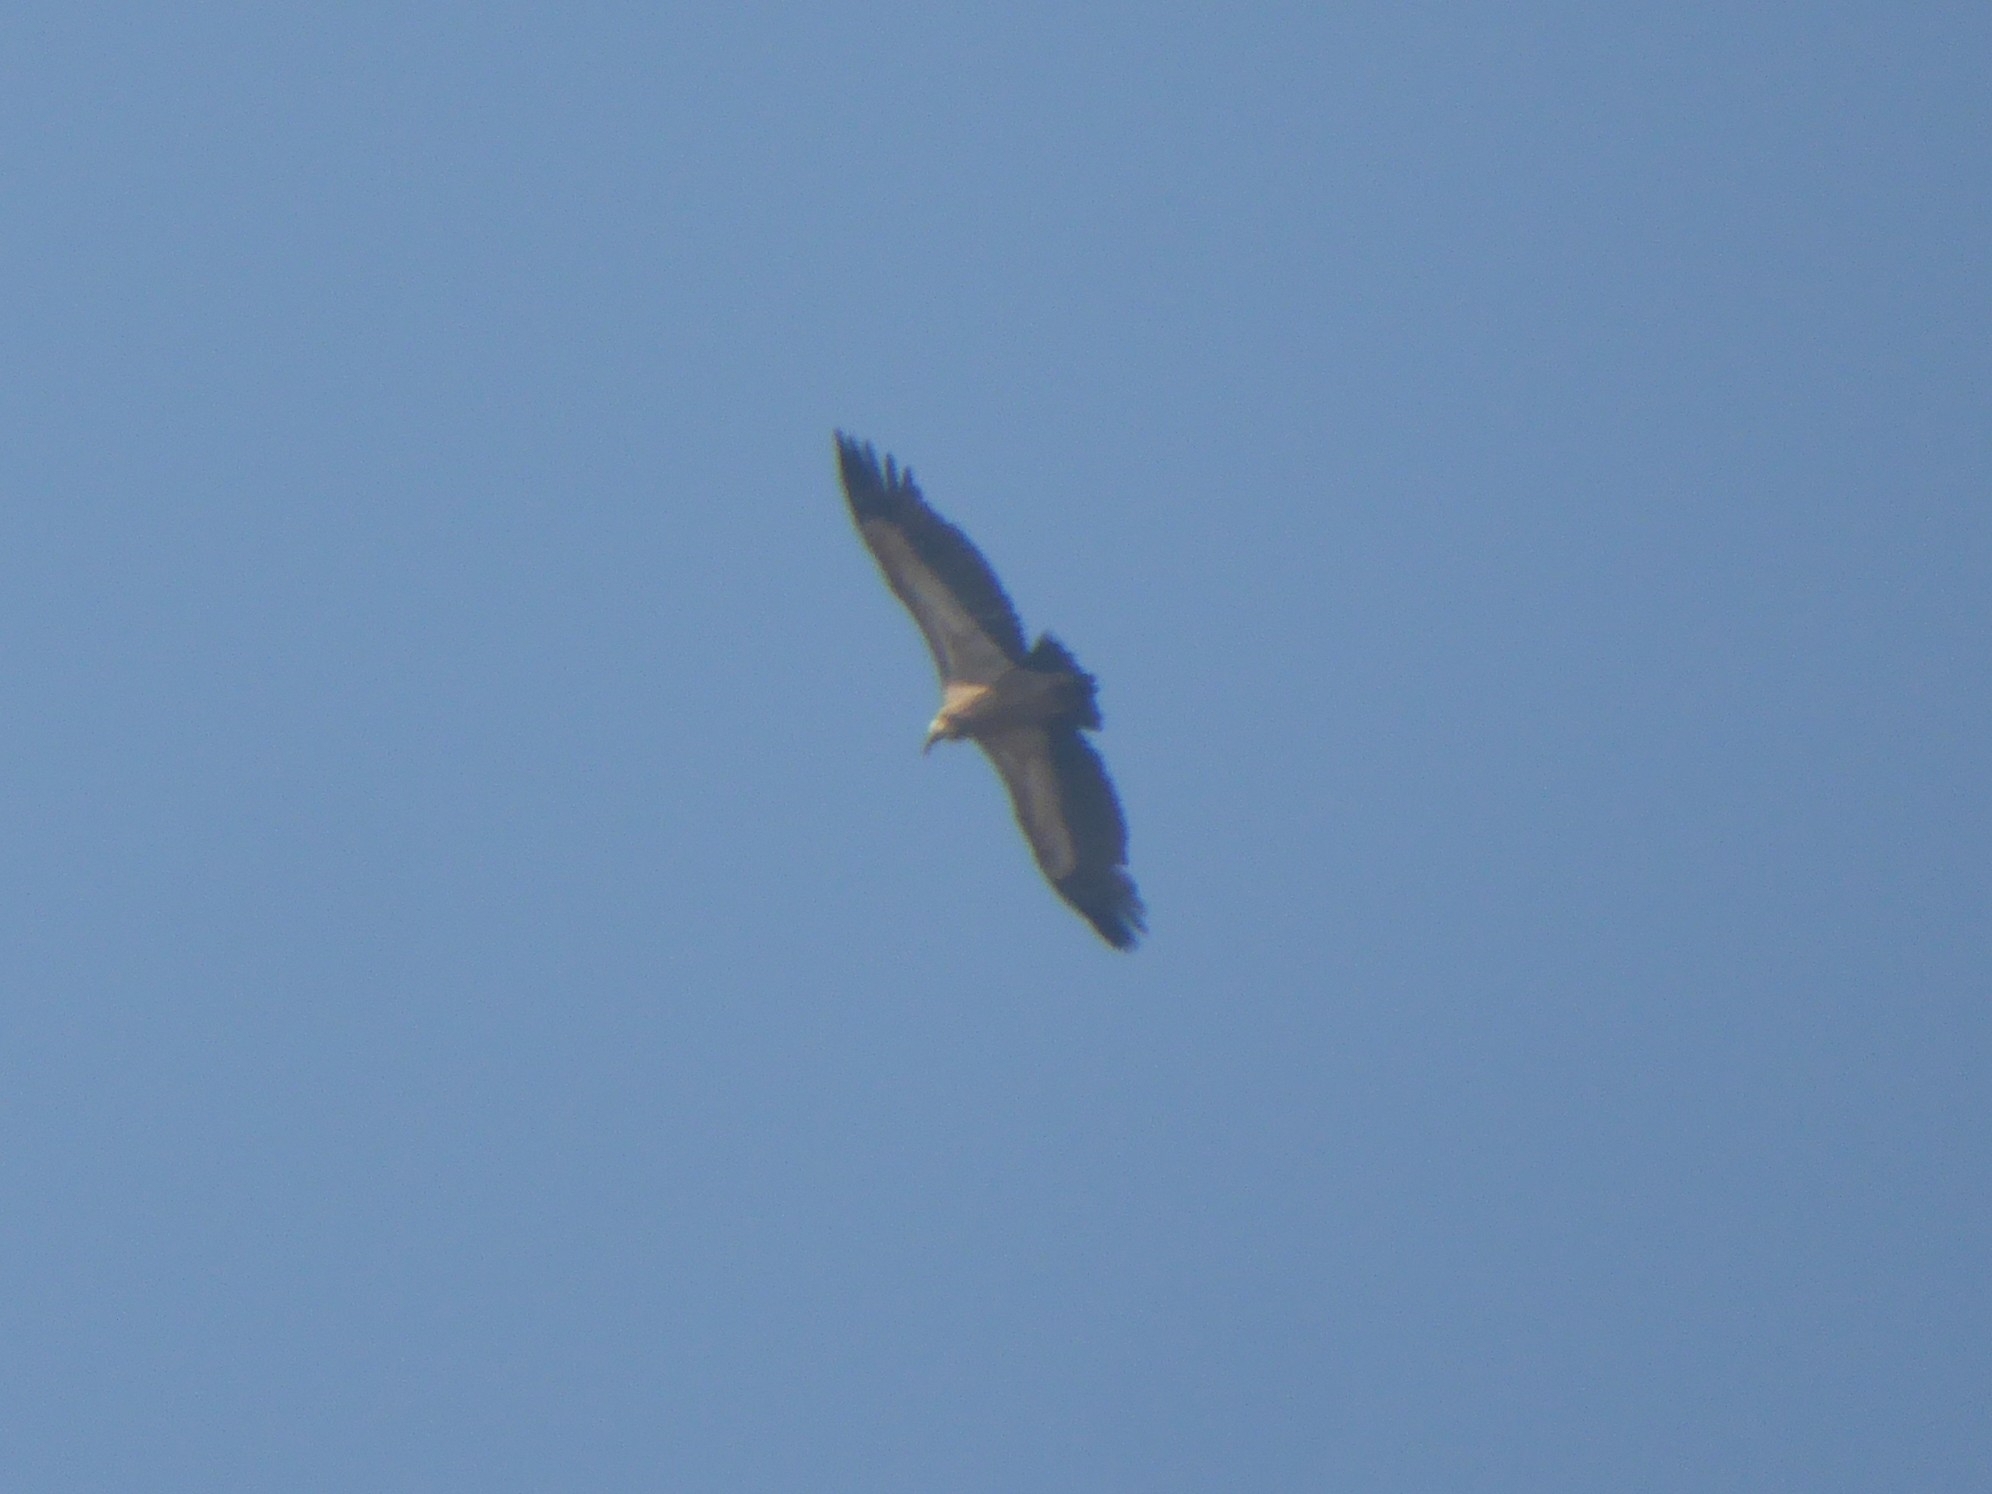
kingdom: Animalia
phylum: Chordata
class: Aves
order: Accipitriformes
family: Accipitridae
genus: Gyps
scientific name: Gyps fulvus
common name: Griffon vulture
